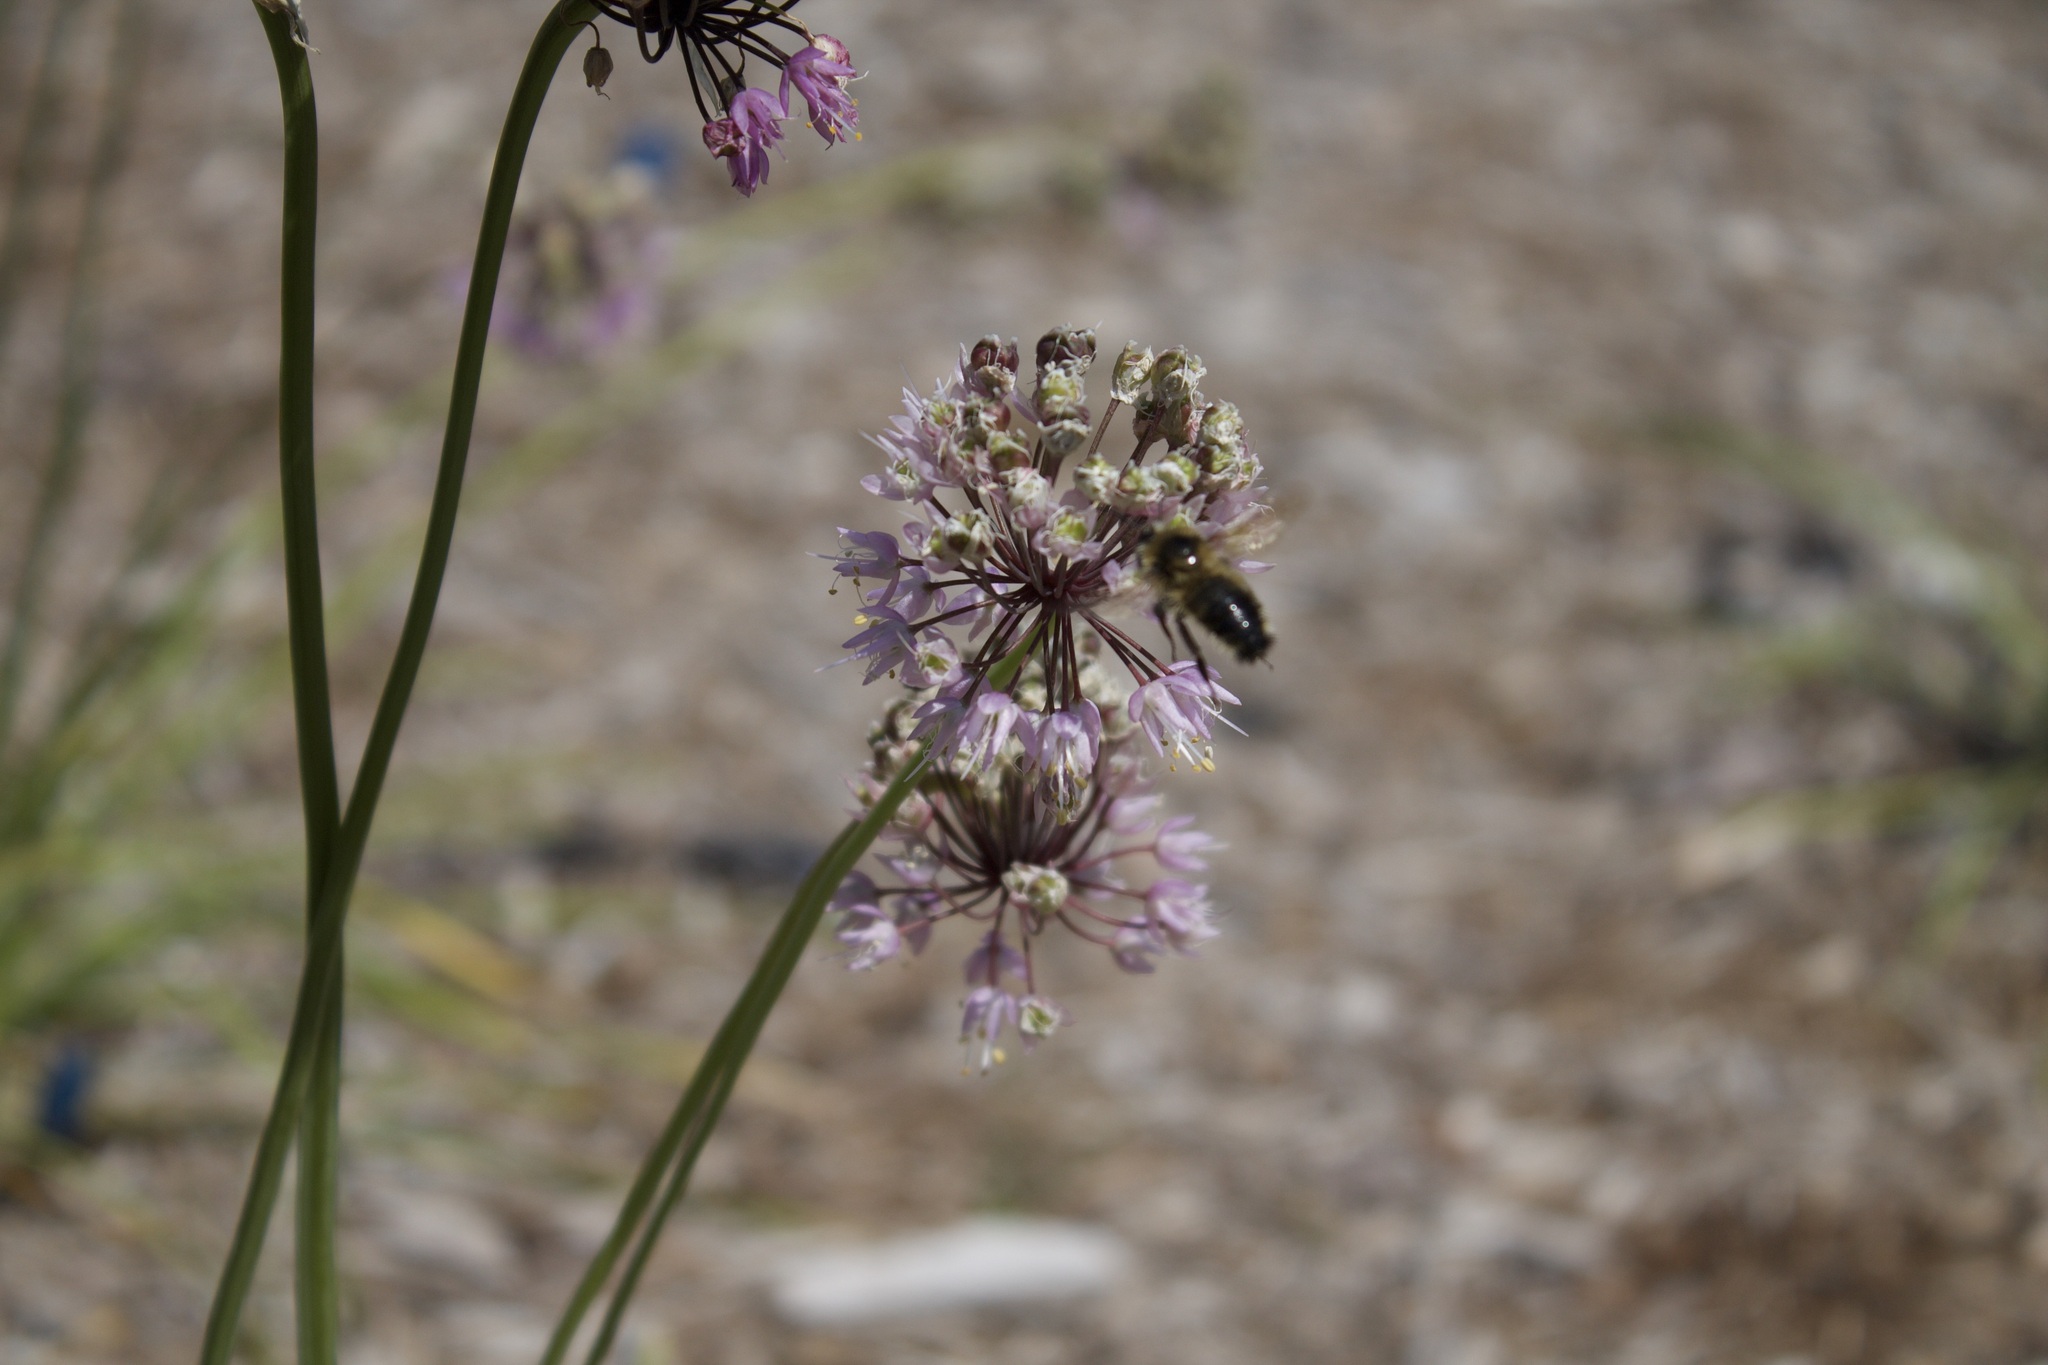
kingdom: Animalia
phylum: Arthropoda
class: Insecta
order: Hymenoptera
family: Apidae
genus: Bombus
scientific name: Bombus rufocinctus
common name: Red-belted bumble bee
